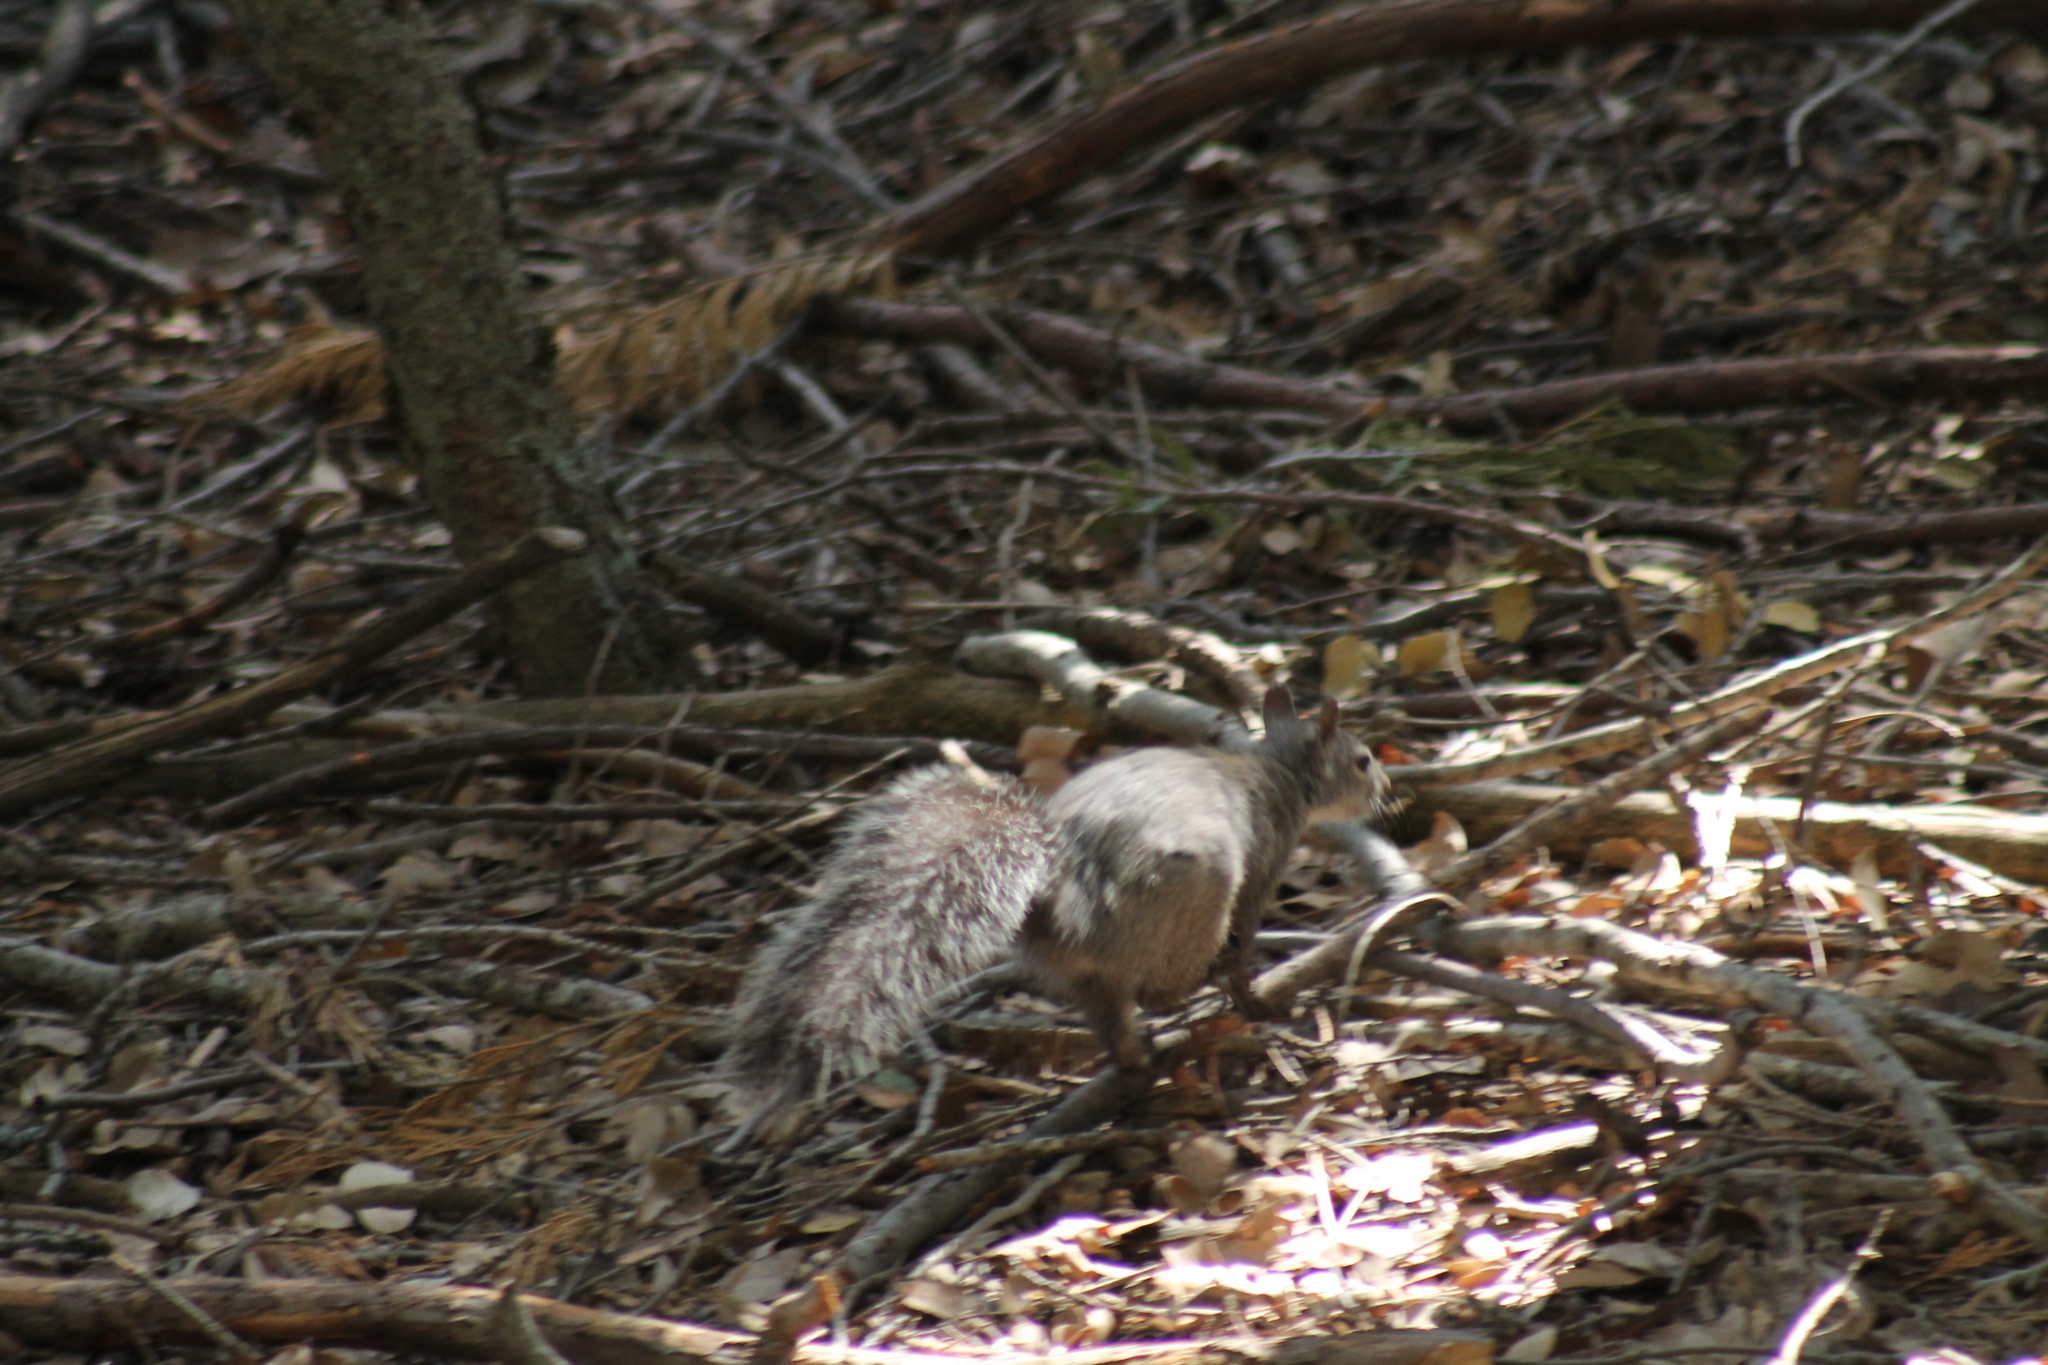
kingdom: Animalia
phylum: Chordata
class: Mammalia
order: Rodentia
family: Sciuridae
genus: Sciurus
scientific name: Sciurus griseus
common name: Western gray squirrel
